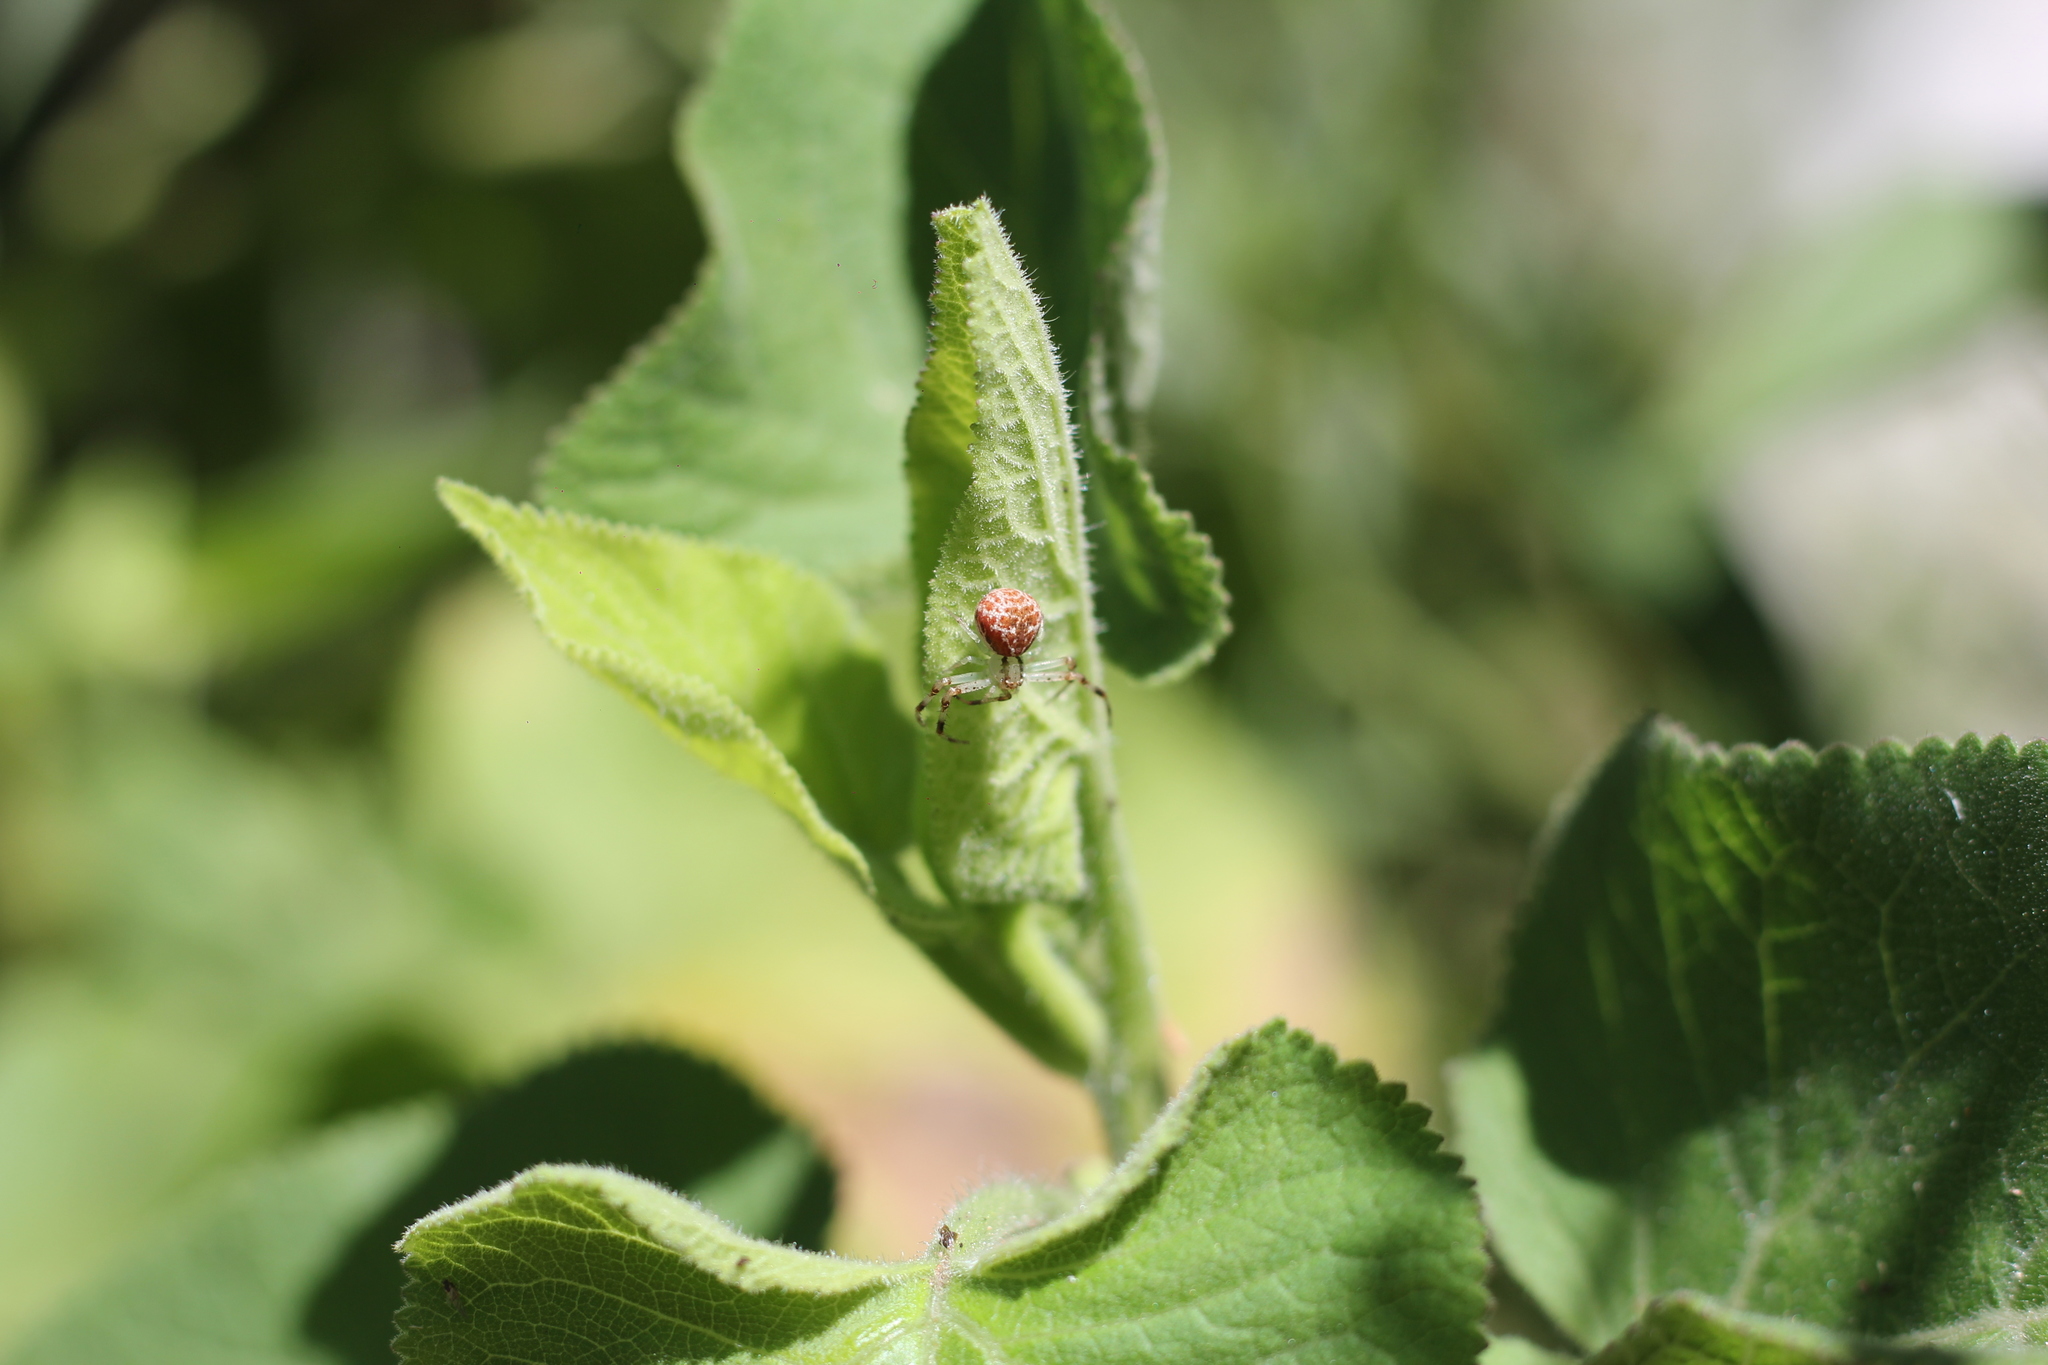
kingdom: Animalia
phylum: Arthropoda
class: Arachnida
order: Araneae
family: Thomisidae
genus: Misumenops
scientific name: Misumenops
